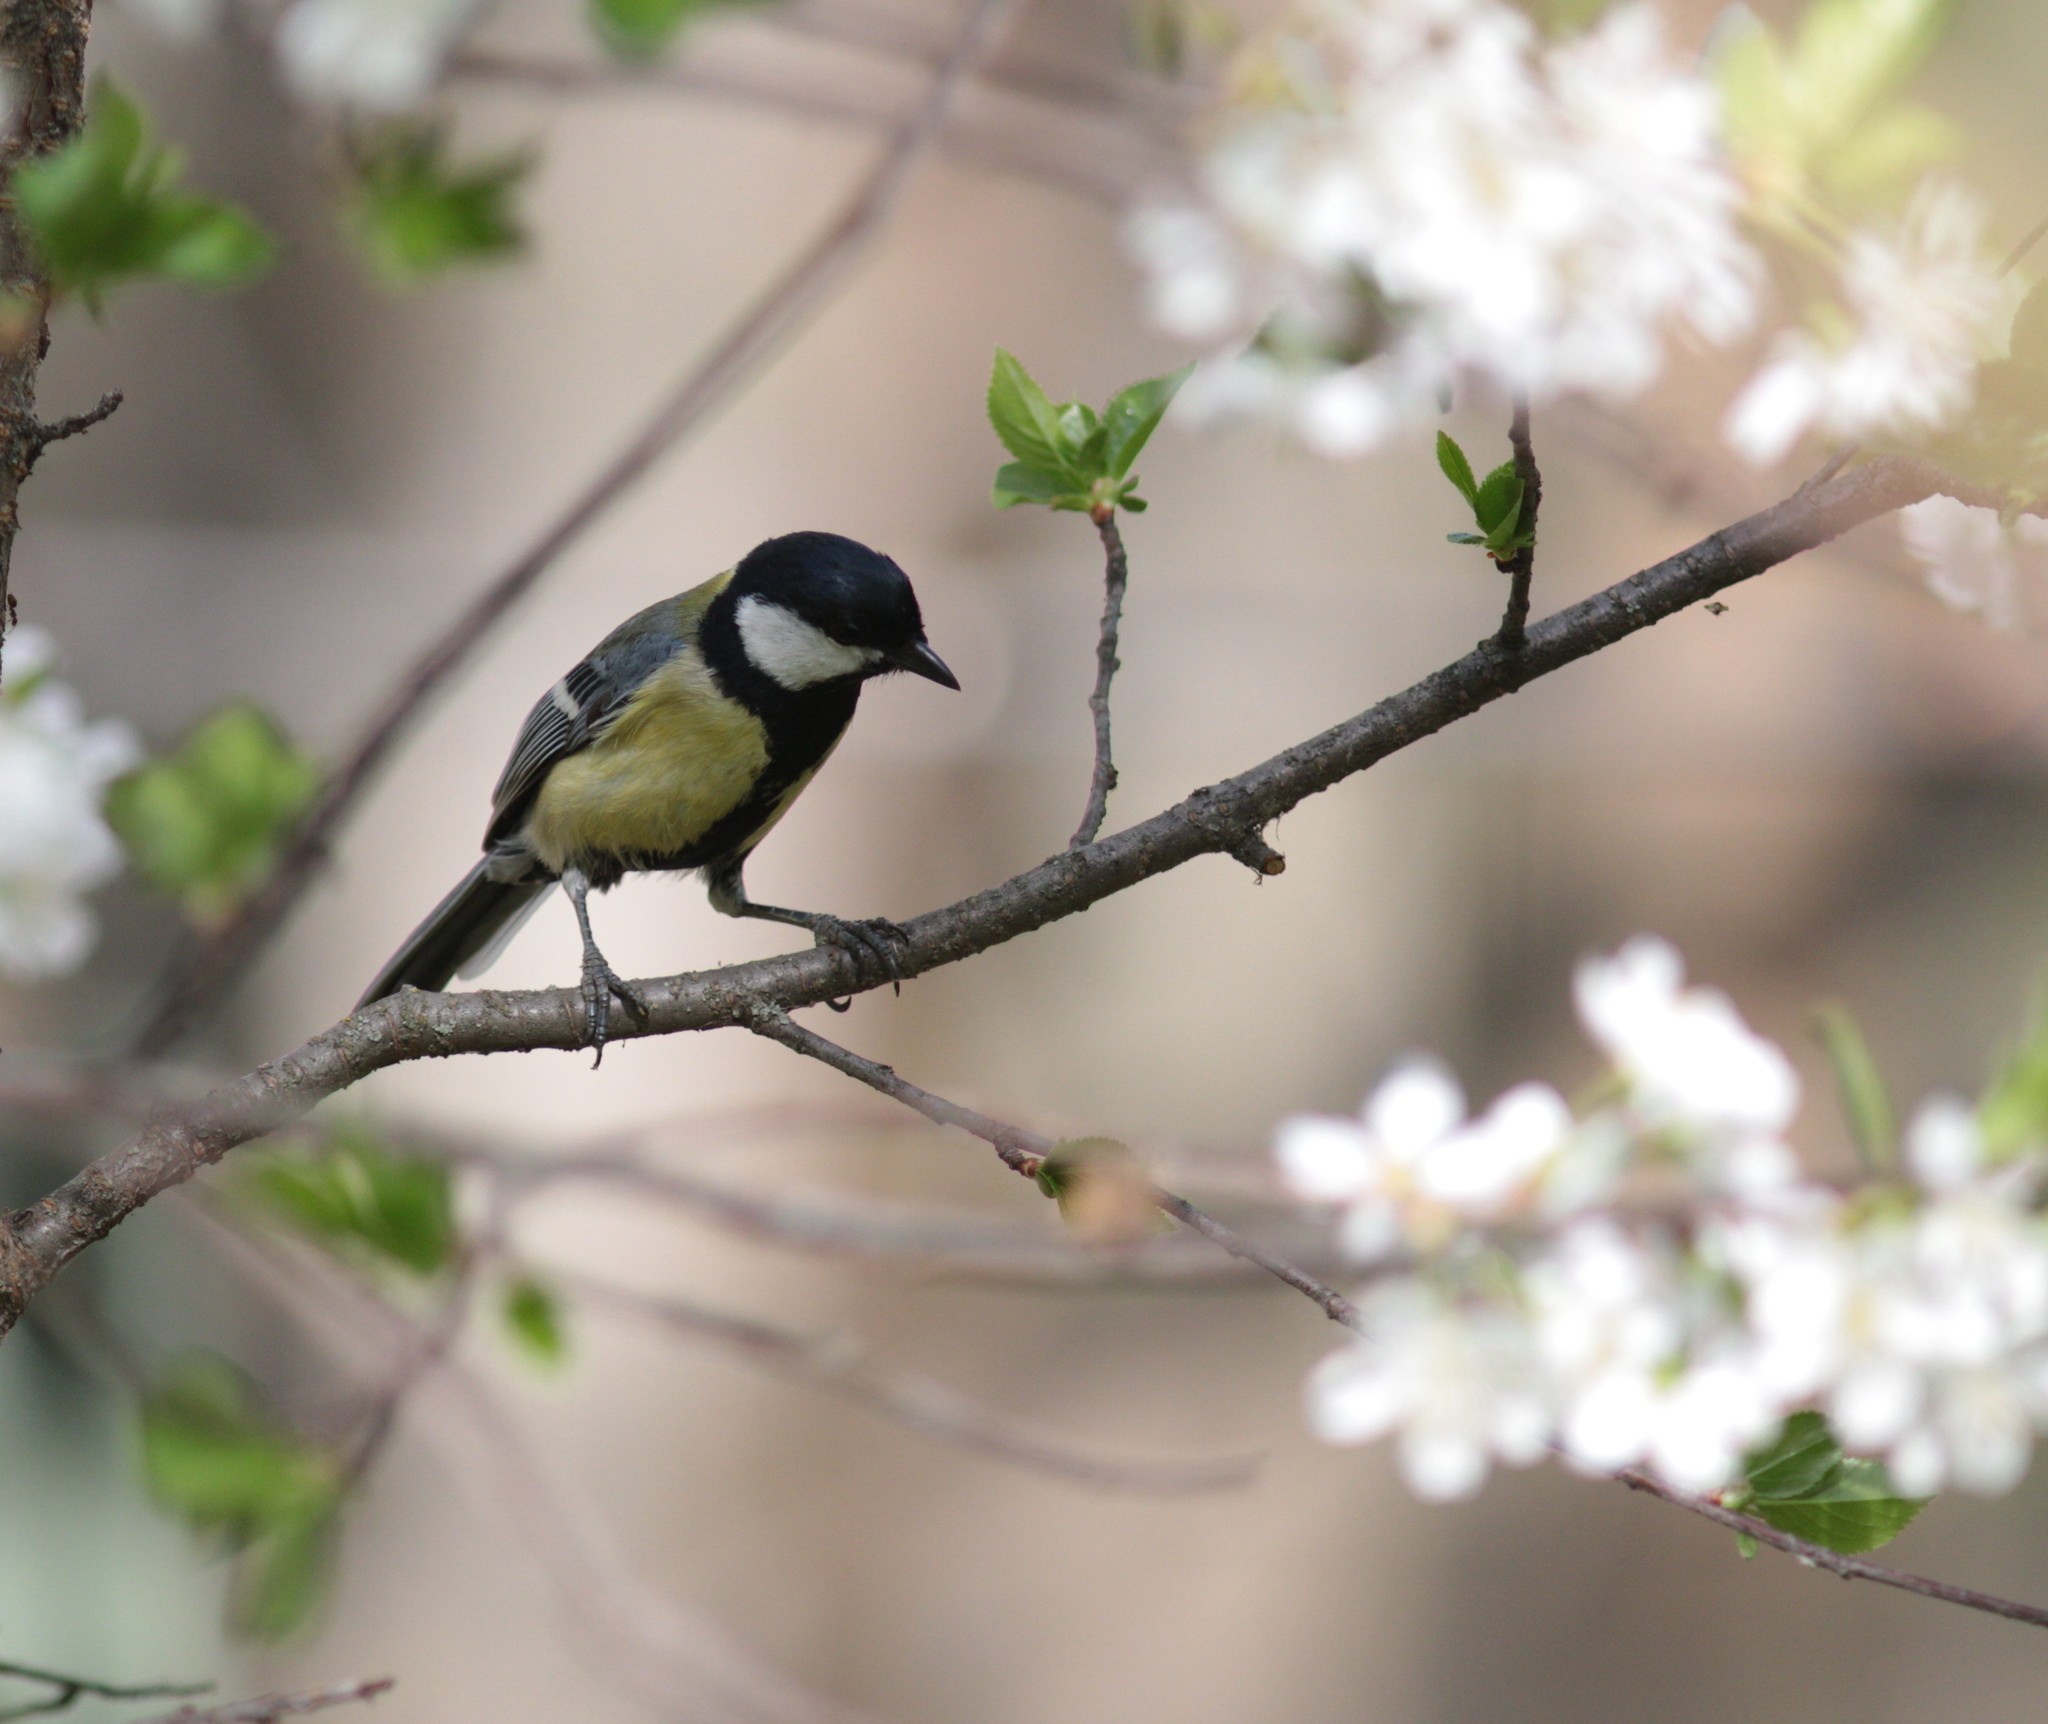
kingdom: Animalia
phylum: Chordata
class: Aves
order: Passeriformes
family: Paridae
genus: Parus
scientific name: Parus major
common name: Great tit
